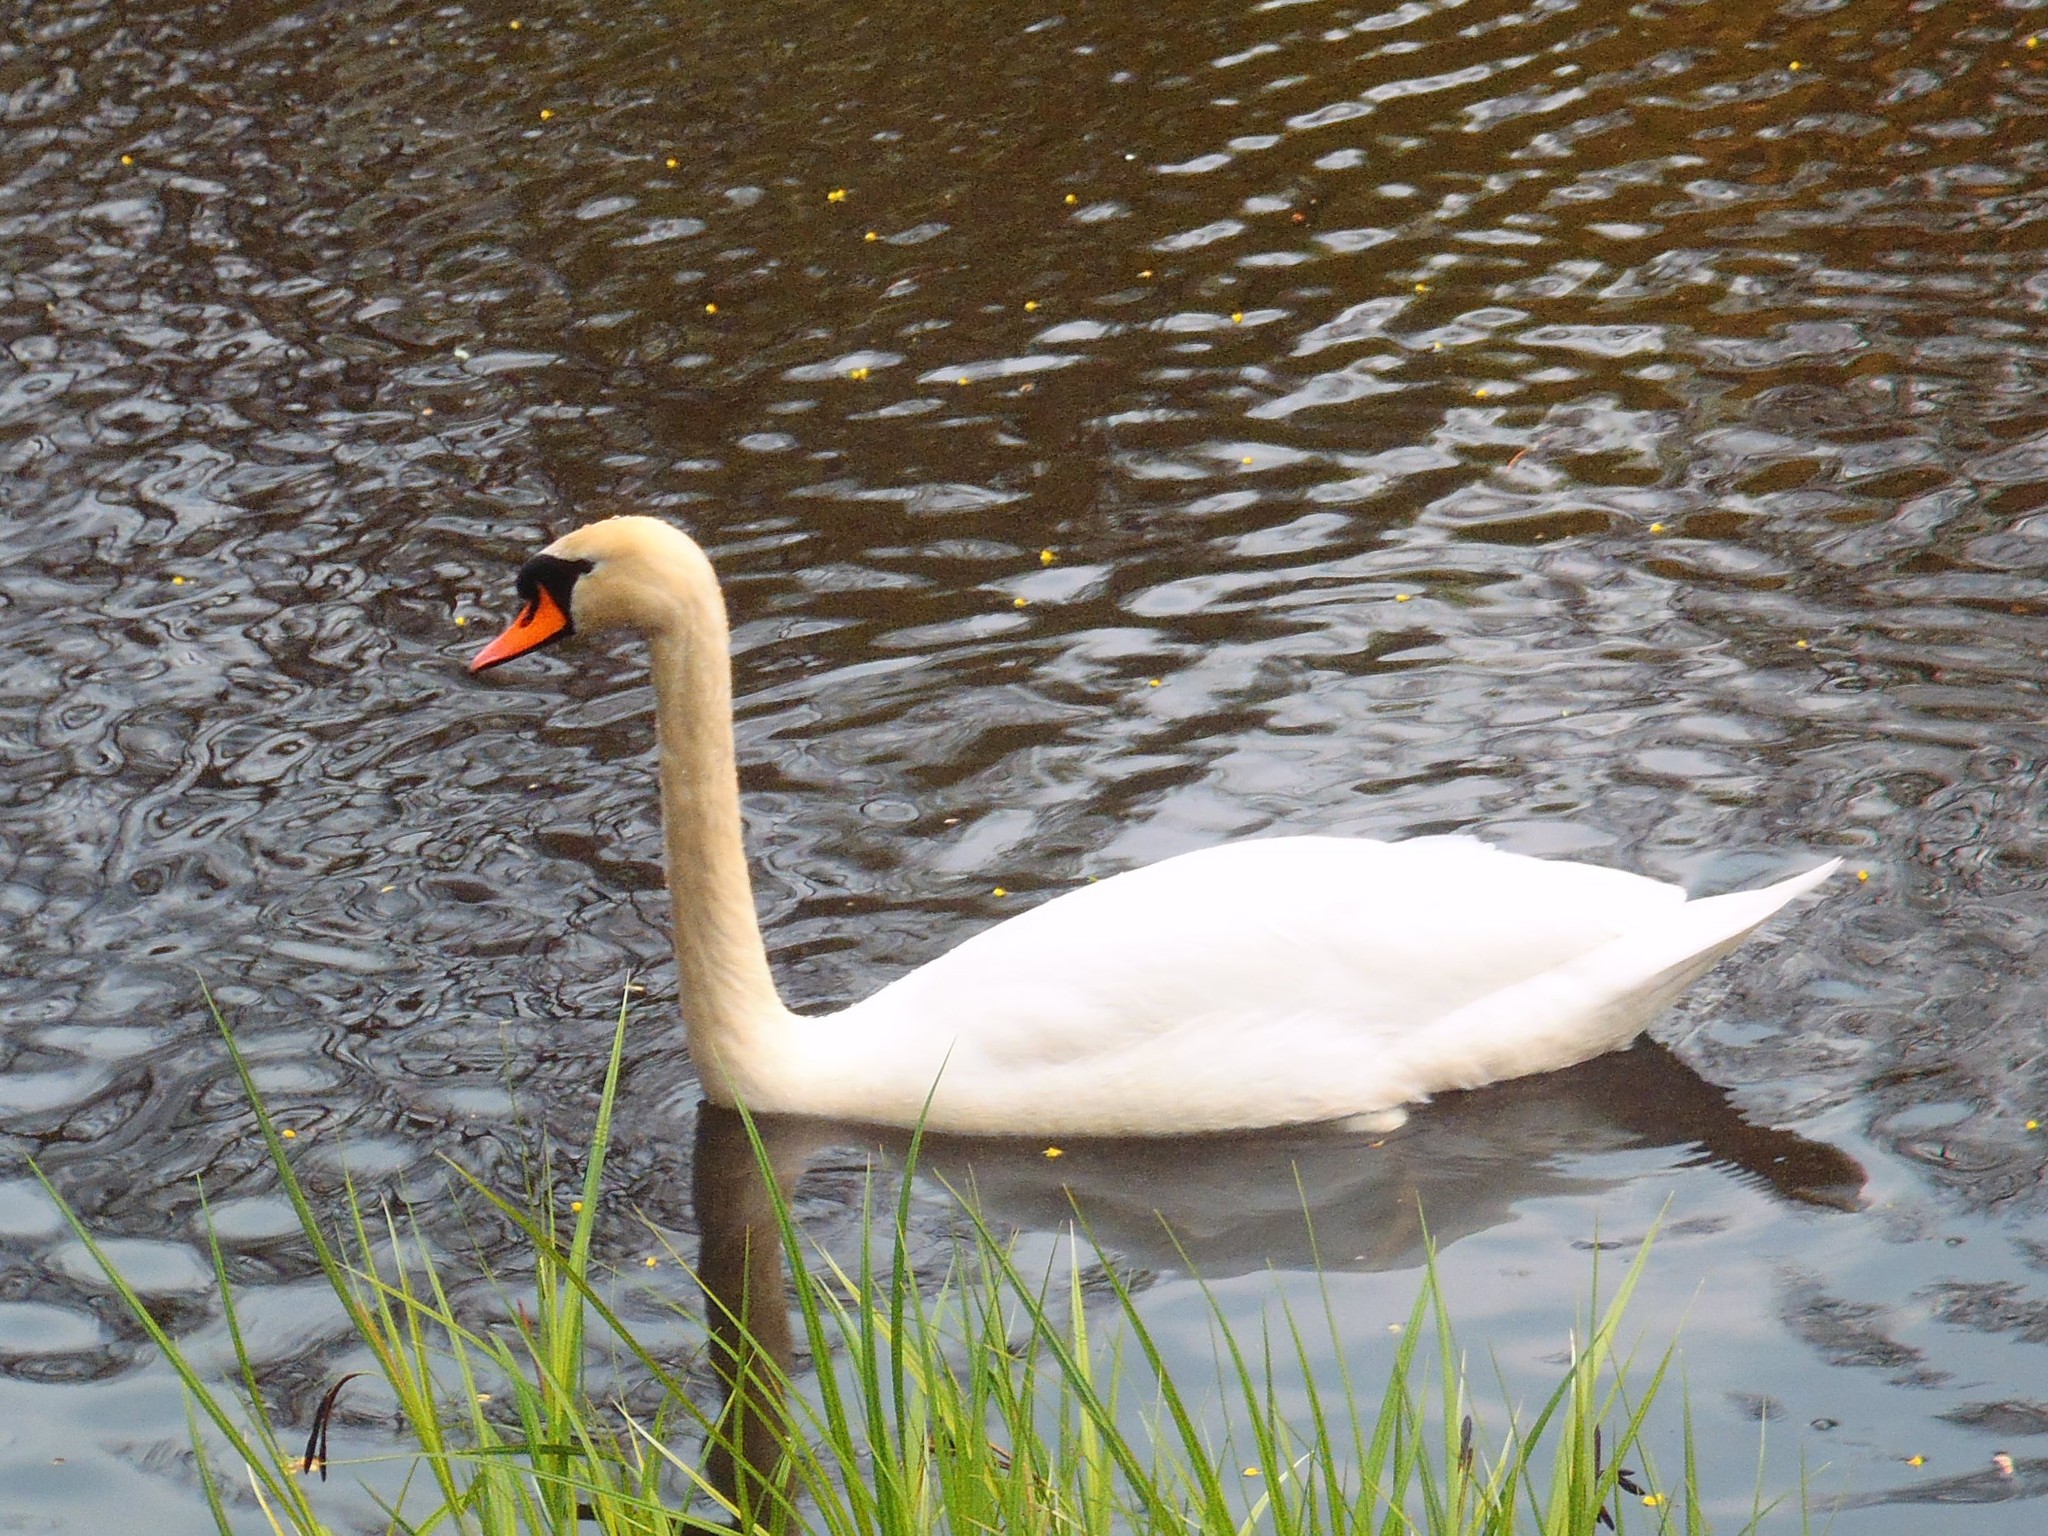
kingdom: Animalia
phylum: Chordata
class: Aves
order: Anseriformes
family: Anatidae
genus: Cygnus
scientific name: Cygnus olor
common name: Mute swan
